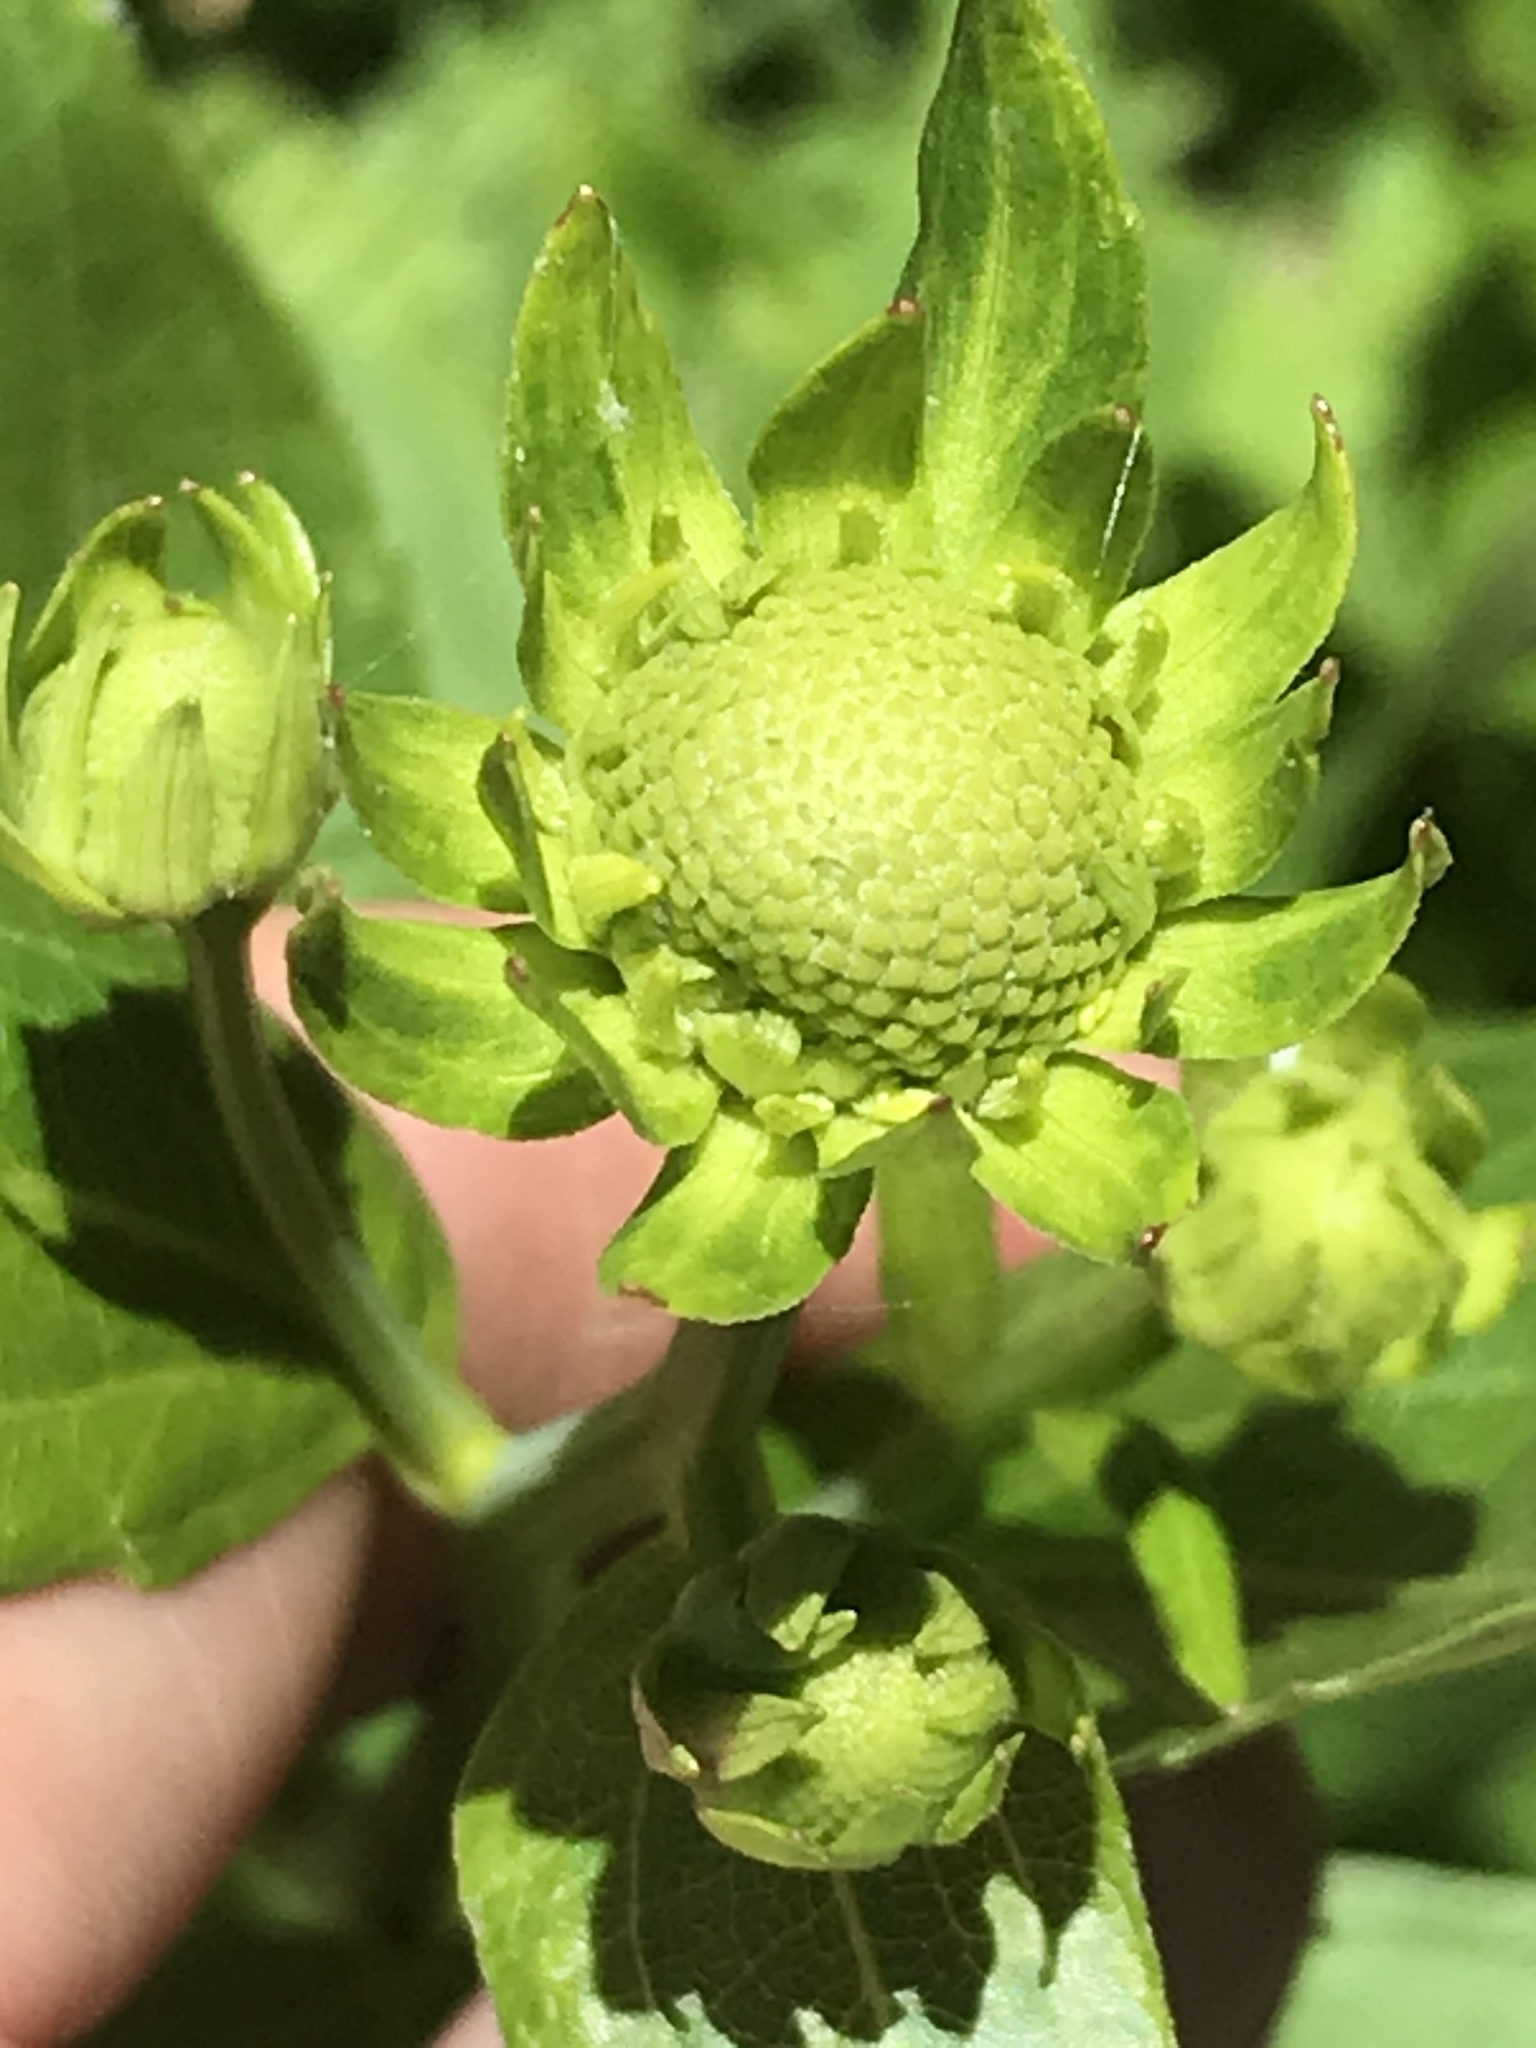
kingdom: Plantae
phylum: Tracheophyta
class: Magnoliopsida
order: Asterales
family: Asteraceae
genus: Rudbeckia
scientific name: Rudbeckia laciniata
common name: Coneflower
